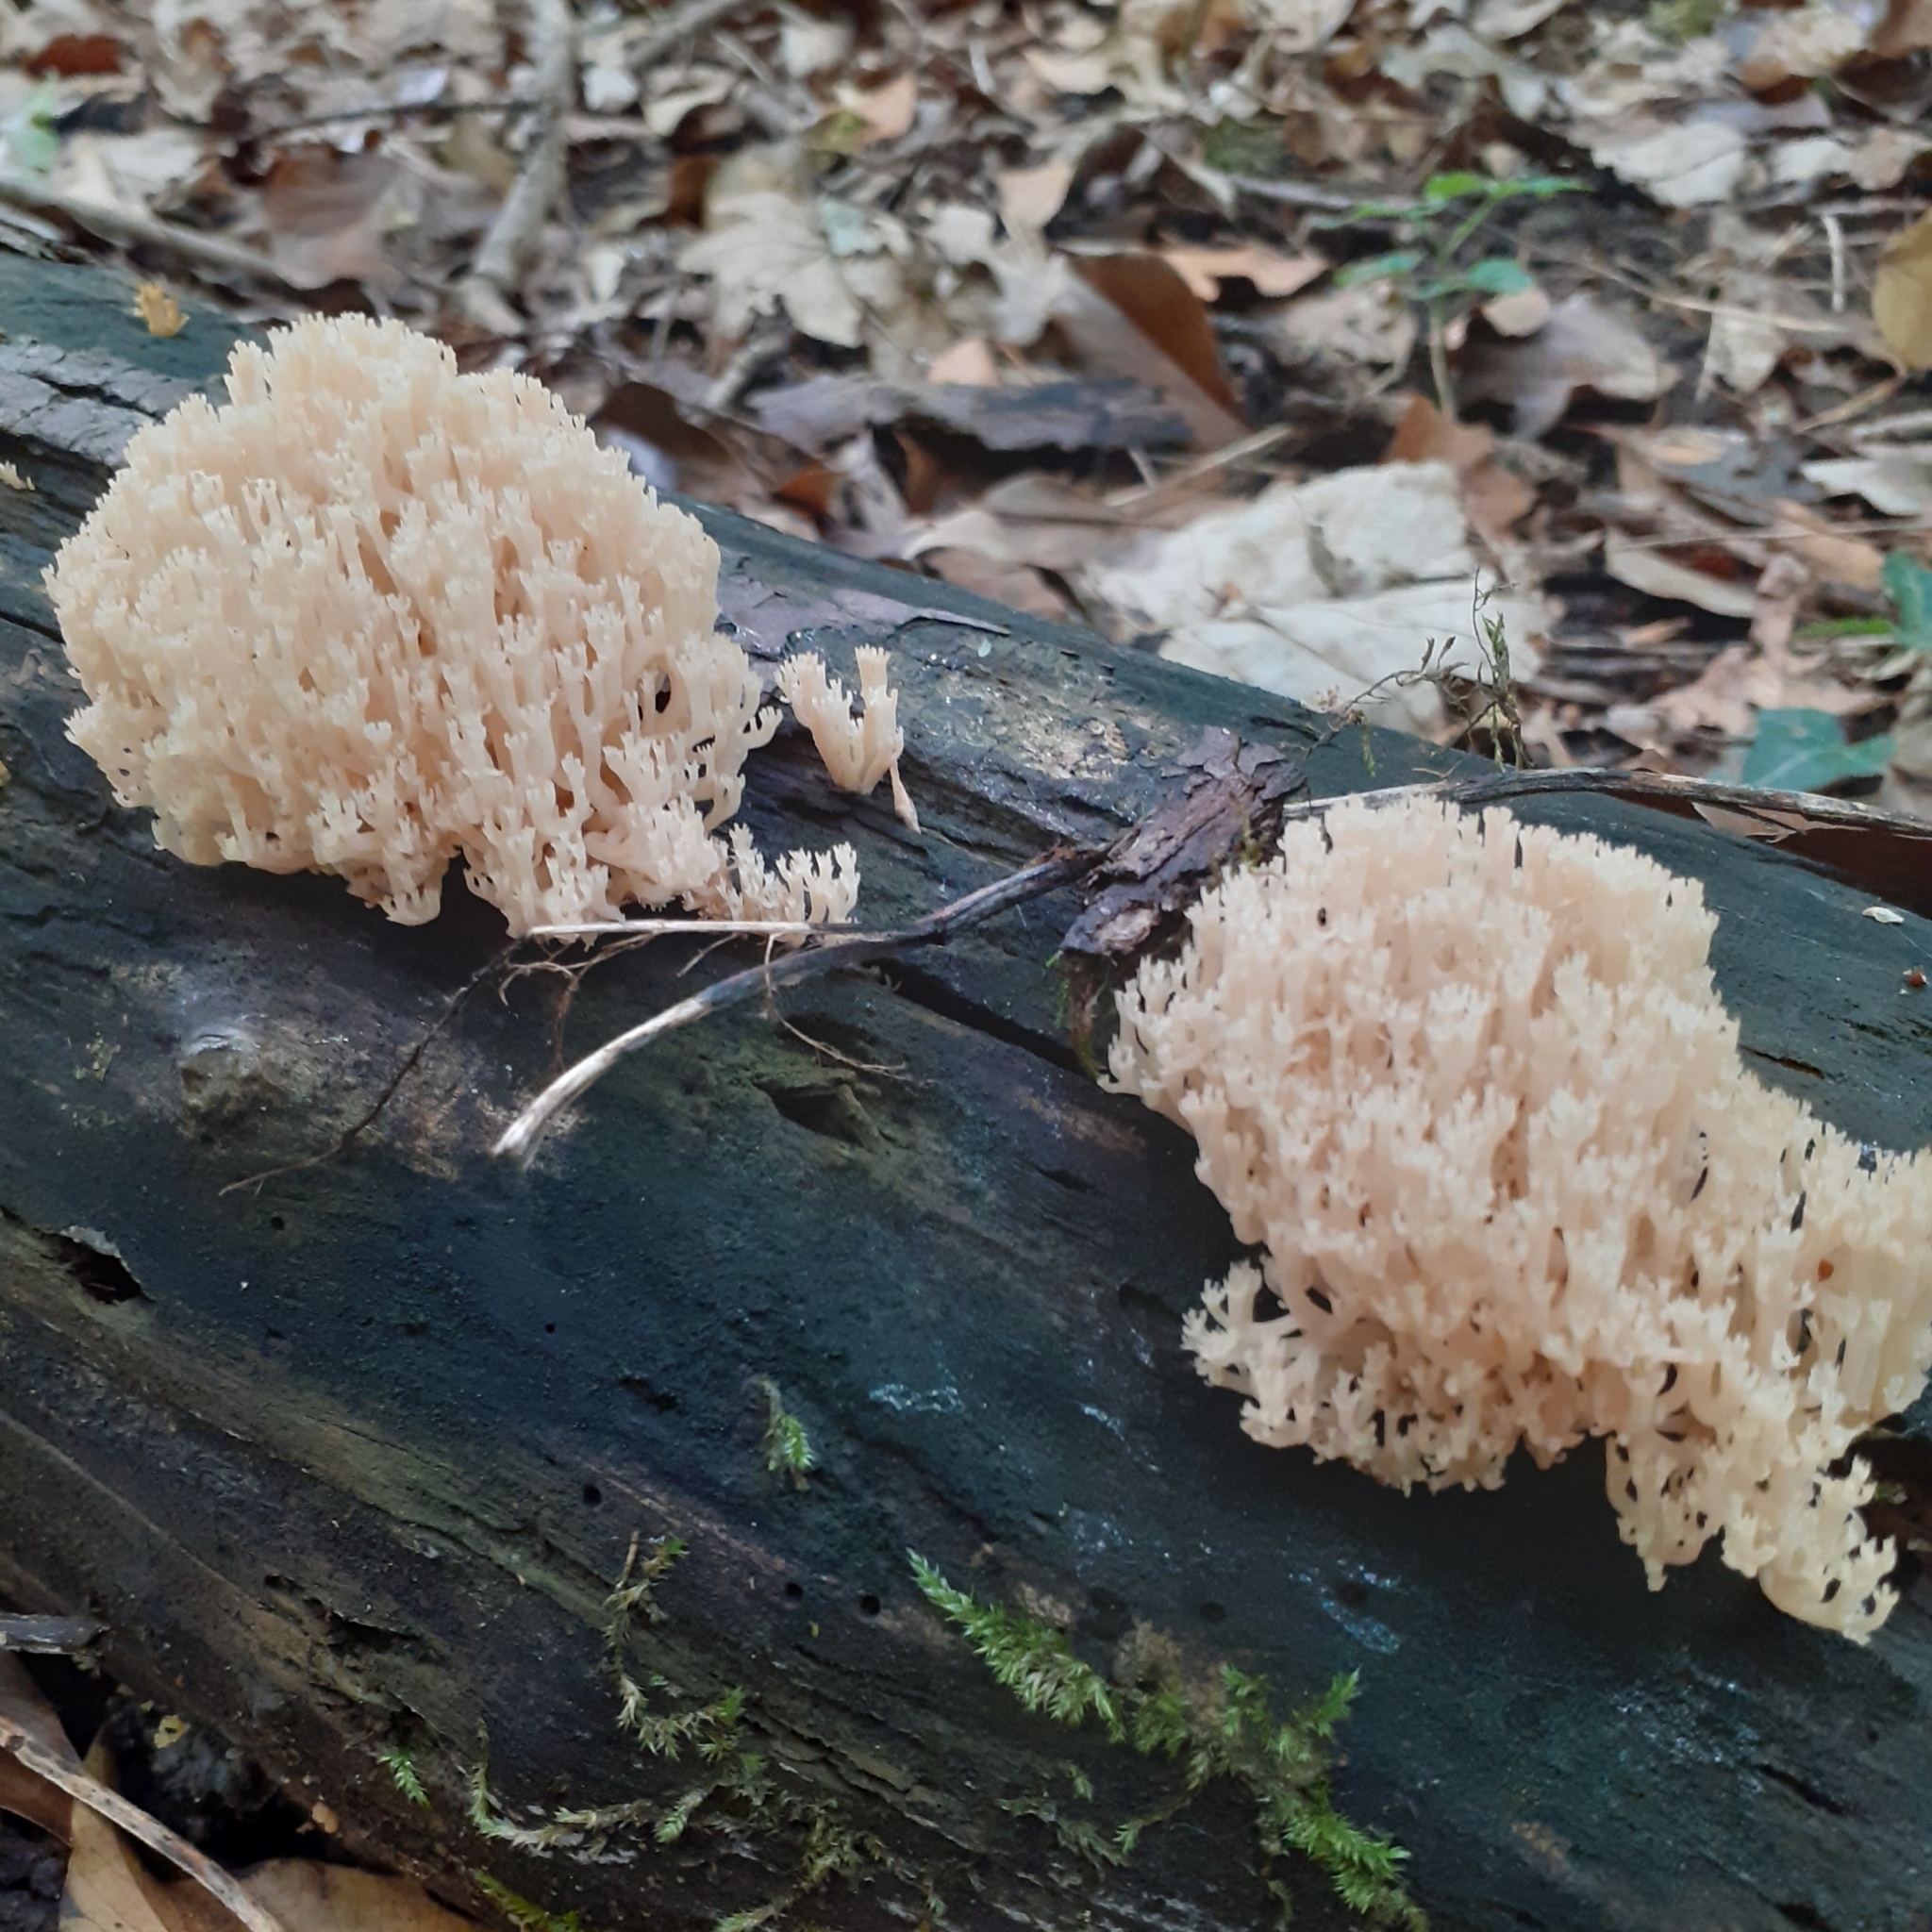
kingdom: Fungi
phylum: Basidiomycota
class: Agaricomycetes
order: Russulales
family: Auriscalpiaceae
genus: Artomyces
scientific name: Artomyces pyxidatus
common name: Crown-tipped coral fungus
